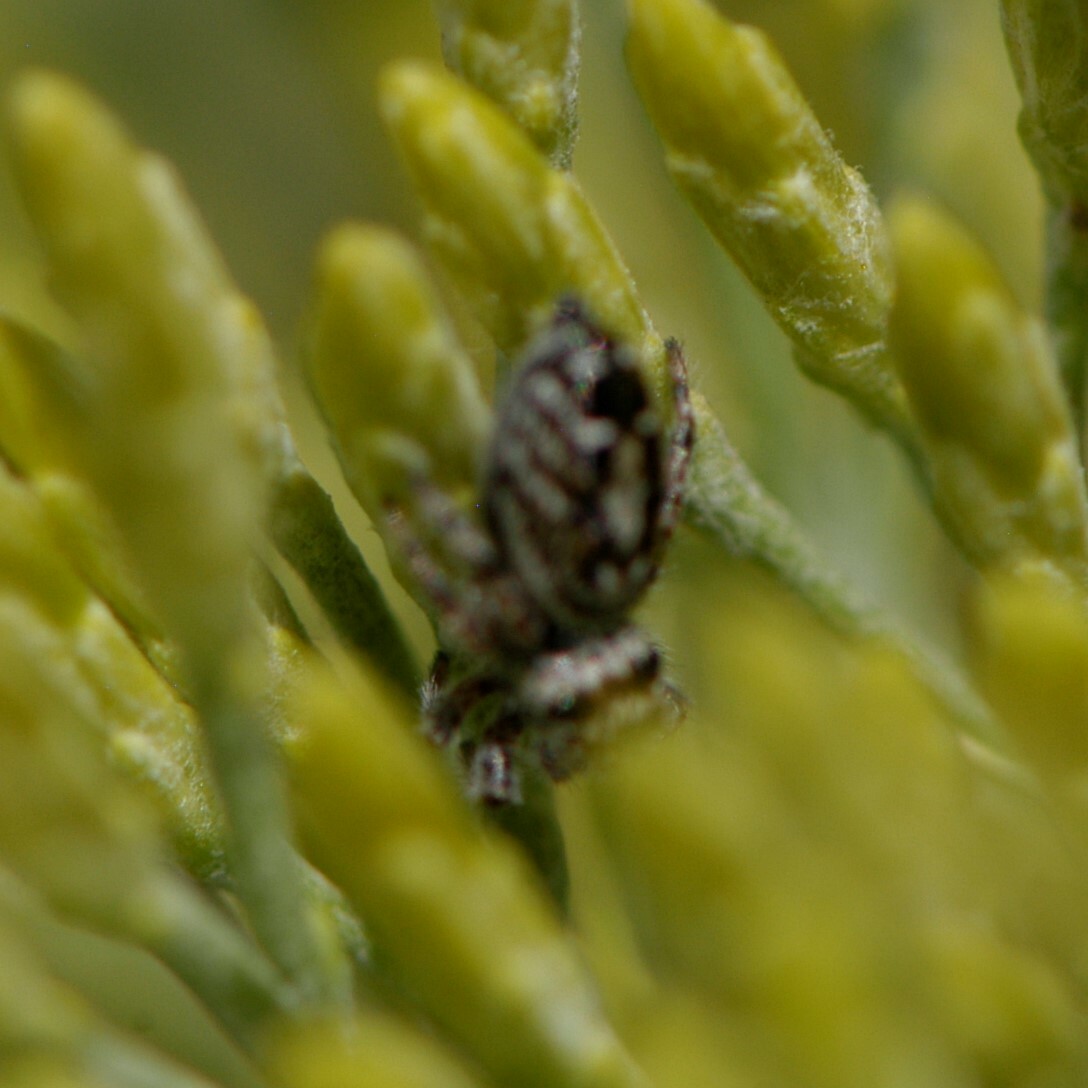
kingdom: Animalia
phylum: Arthropoda
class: Arachnida
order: Araneae
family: Salticidae
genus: Phidippus
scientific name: Phidippus comatus
